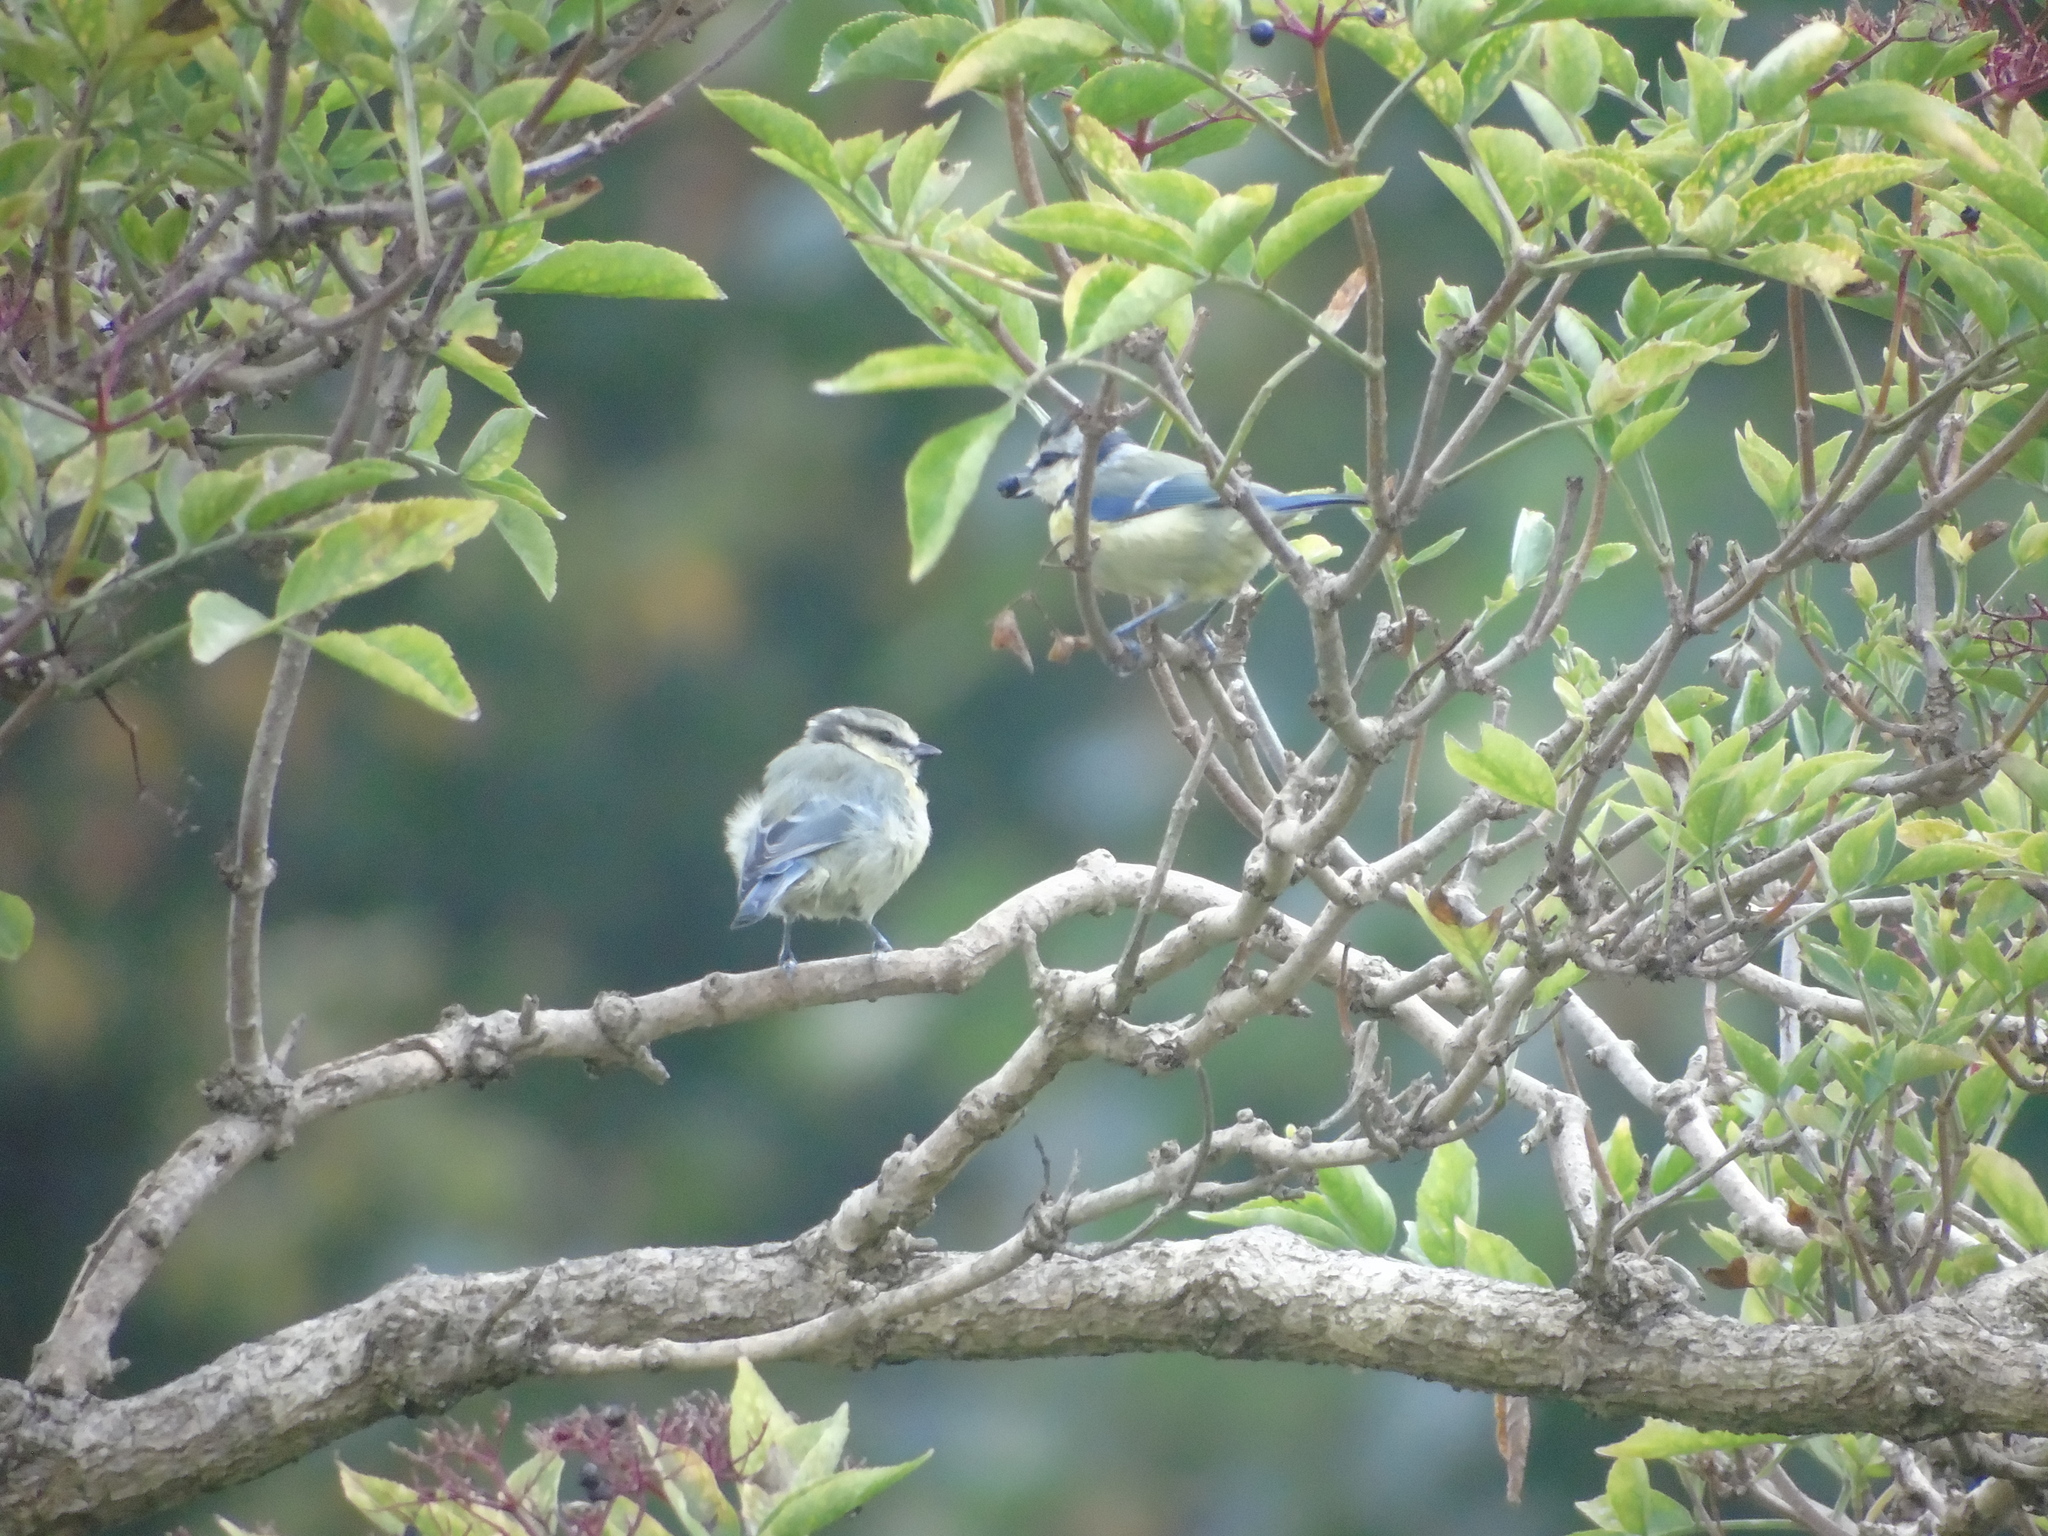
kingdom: Animalia
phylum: Chordata
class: Aves
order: Passeriformes
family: Paridae
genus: Cyanistes
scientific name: Cyanistes caeruleus
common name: Eurasian blue tit
